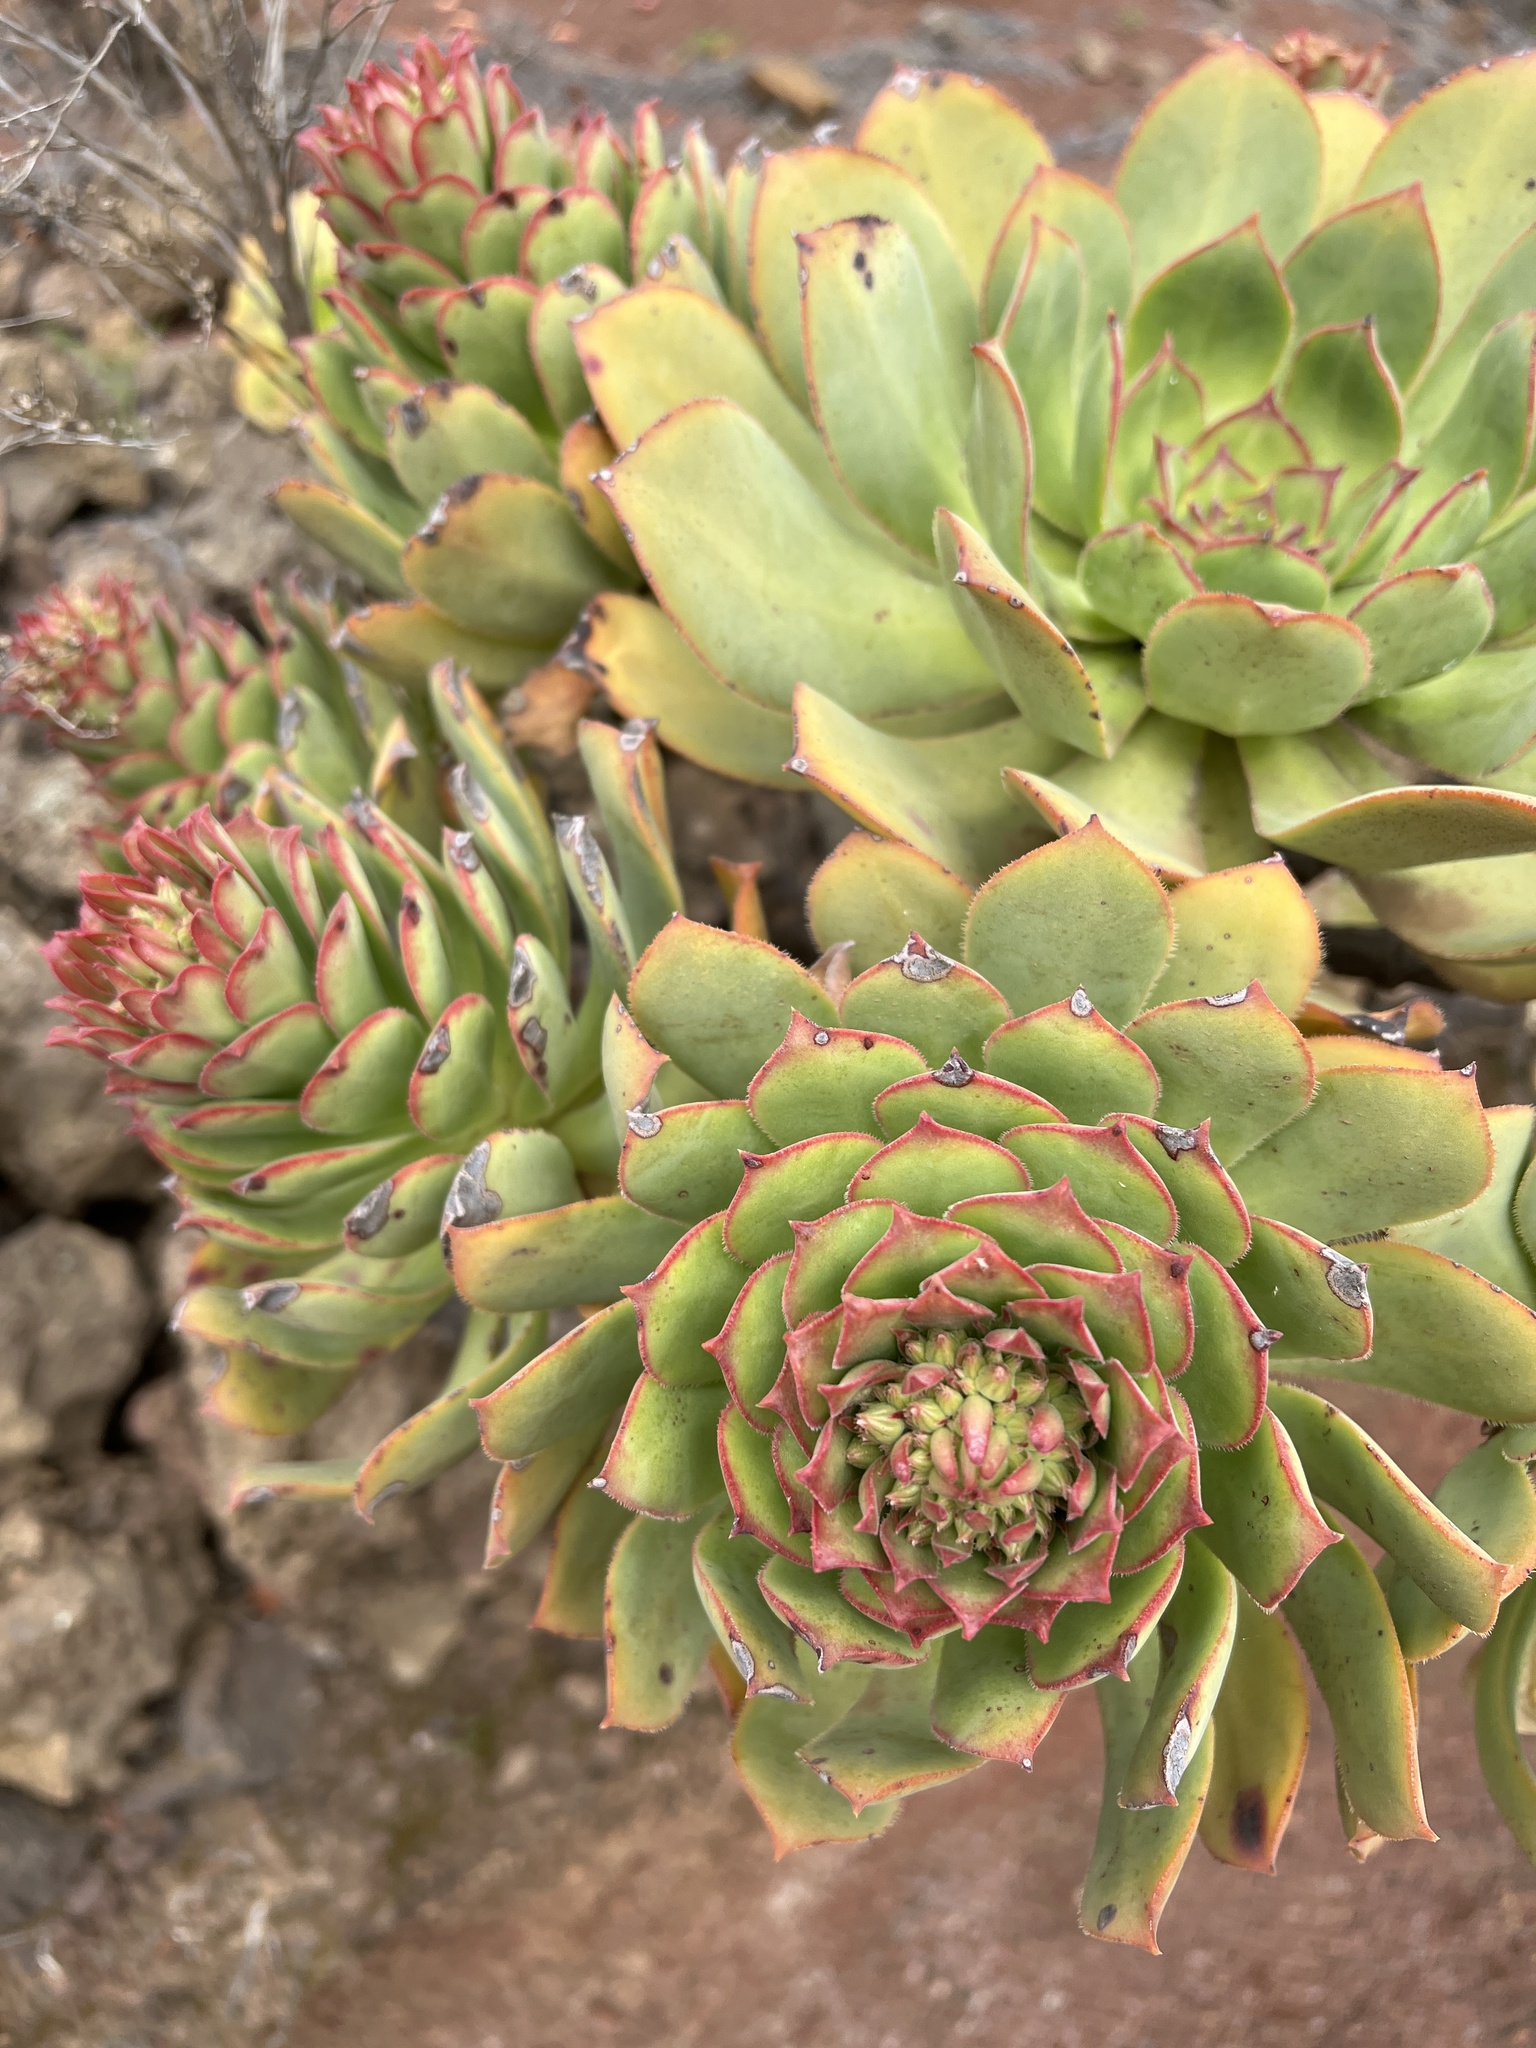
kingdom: Plantae
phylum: Tracheophyta
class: Magnoliopsida
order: Saxifragales
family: Crassulaceae
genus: Aeonium
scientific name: Aeonium valverdense
